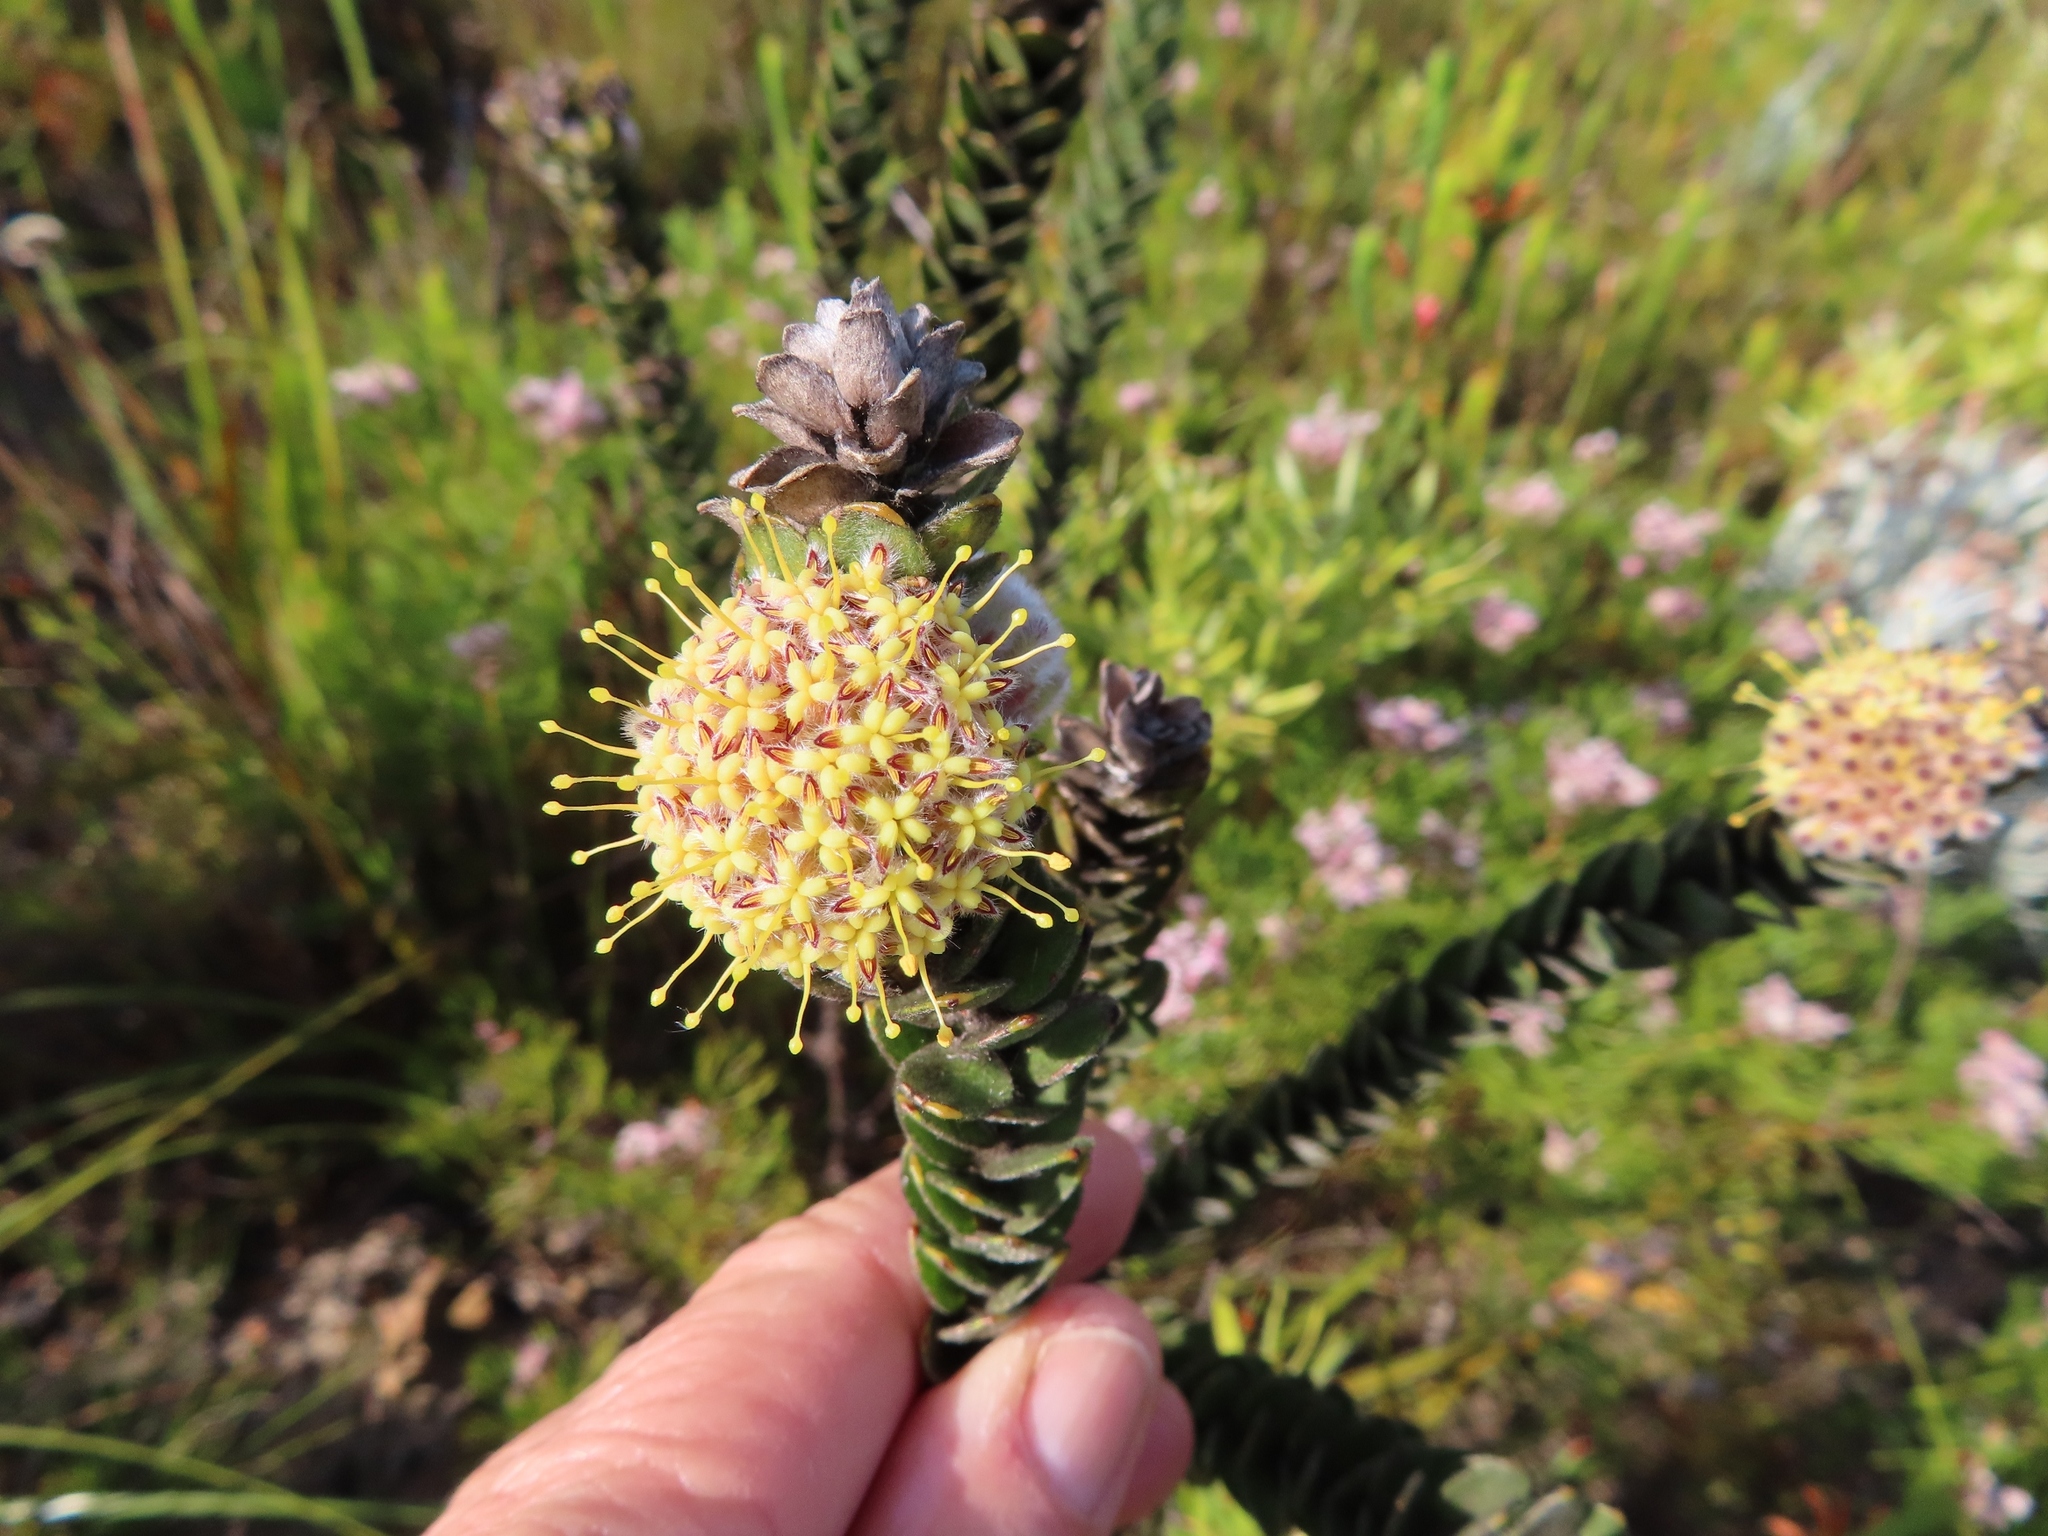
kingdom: Plantae
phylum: Tracheophyta
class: Magnoliopsida
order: Proteales
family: Proteaceae
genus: Leucospermum
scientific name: Leucospermum truncatulum
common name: Oval-leaf pincushion
